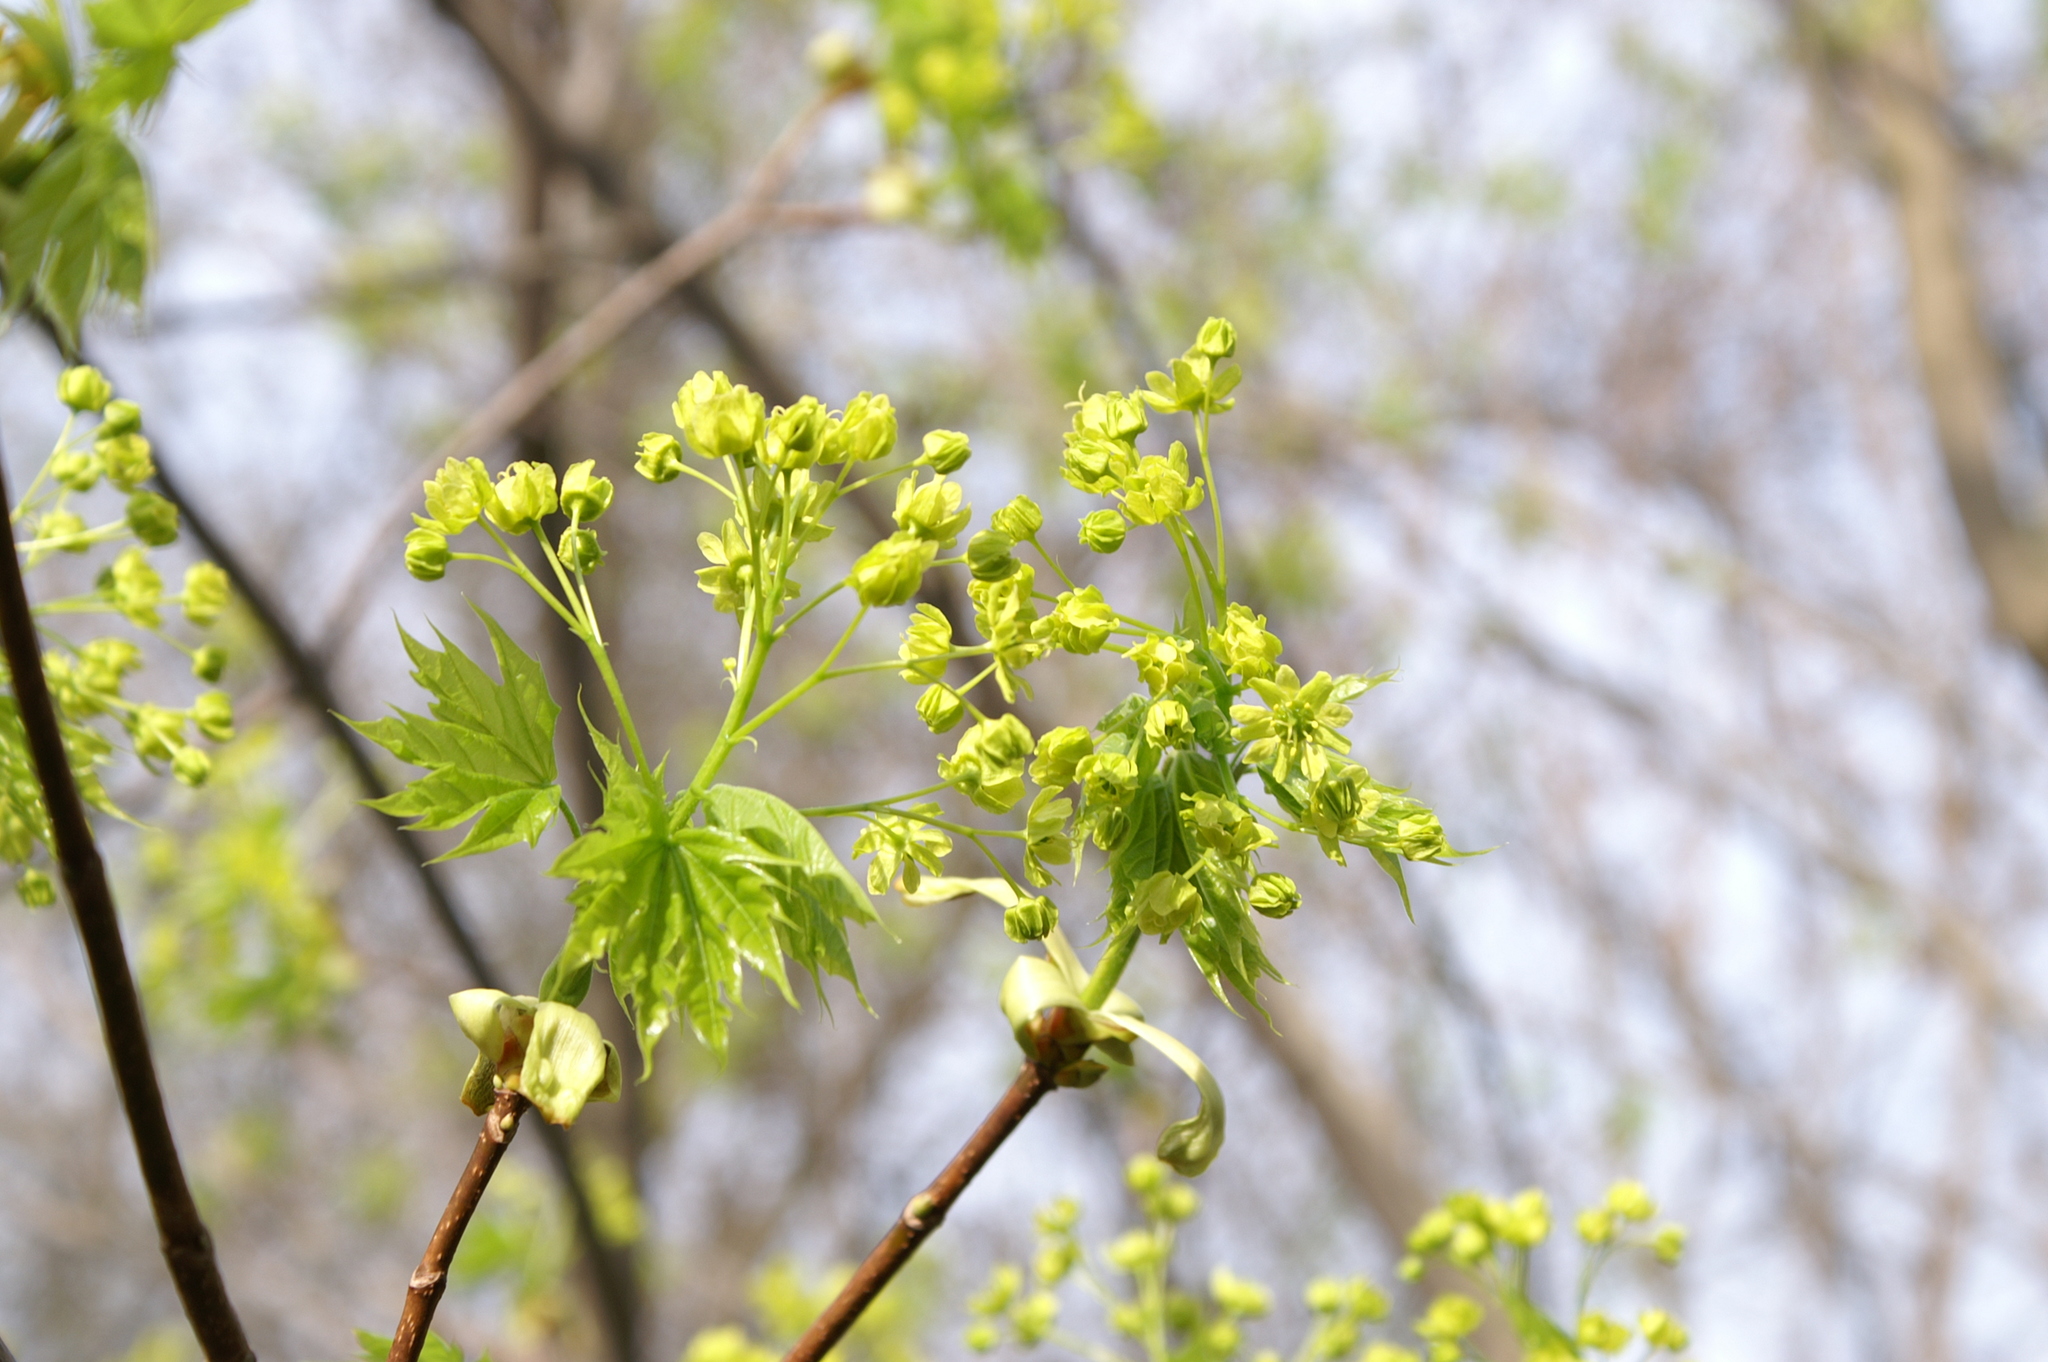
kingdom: Plantae
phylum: Tracheophyta
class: Magnoliopsida
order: Sapindales
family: Sapindaceae
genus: Acer
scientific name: Acer platanoides
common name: Norway maple
